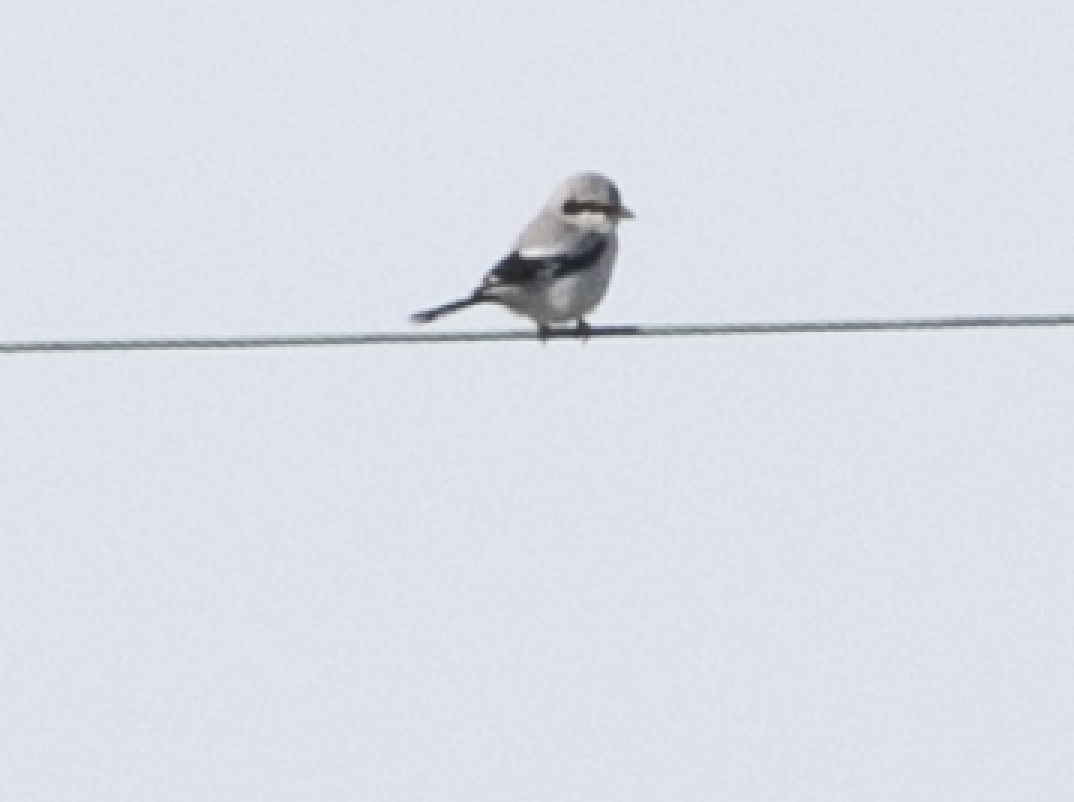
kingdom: Animalia
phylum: Chordata
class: Aves
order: Passeriformes
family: Laniidae
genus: Lanius
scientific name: Lanius excubitor
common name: Great grey shrike
